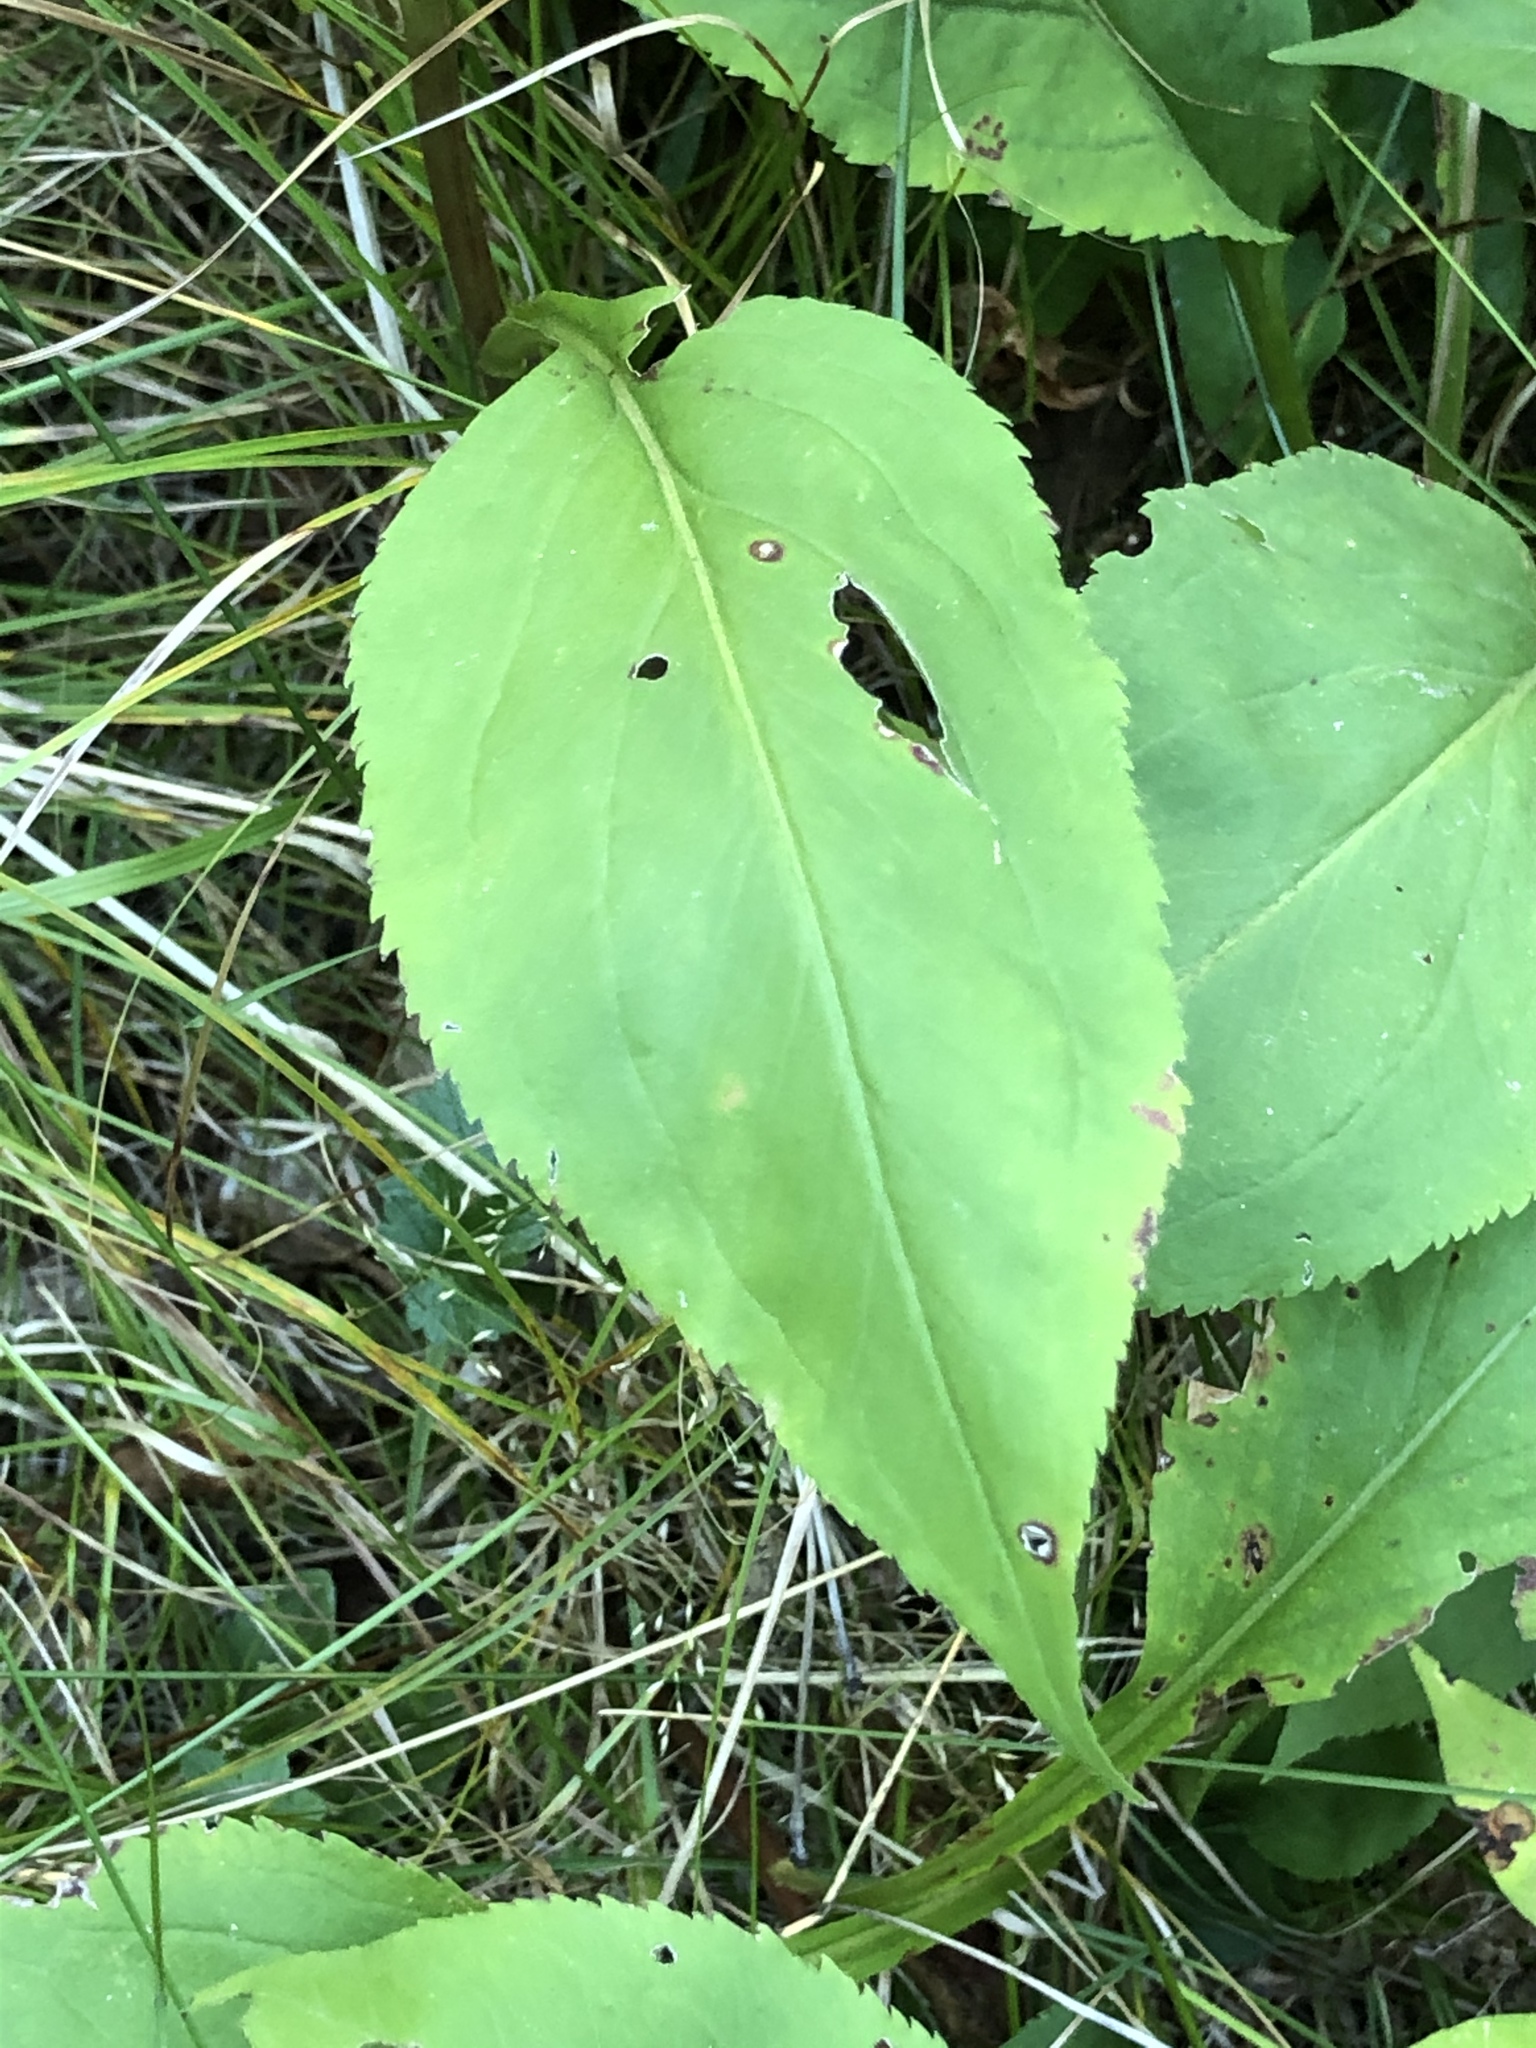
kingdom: Plantae
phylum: Tracheophyta
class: Magnoliopsida
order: Asterales
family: Asteraceae
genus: Solidago
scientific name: Solidago arguta
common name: Atlantic goldenrod
